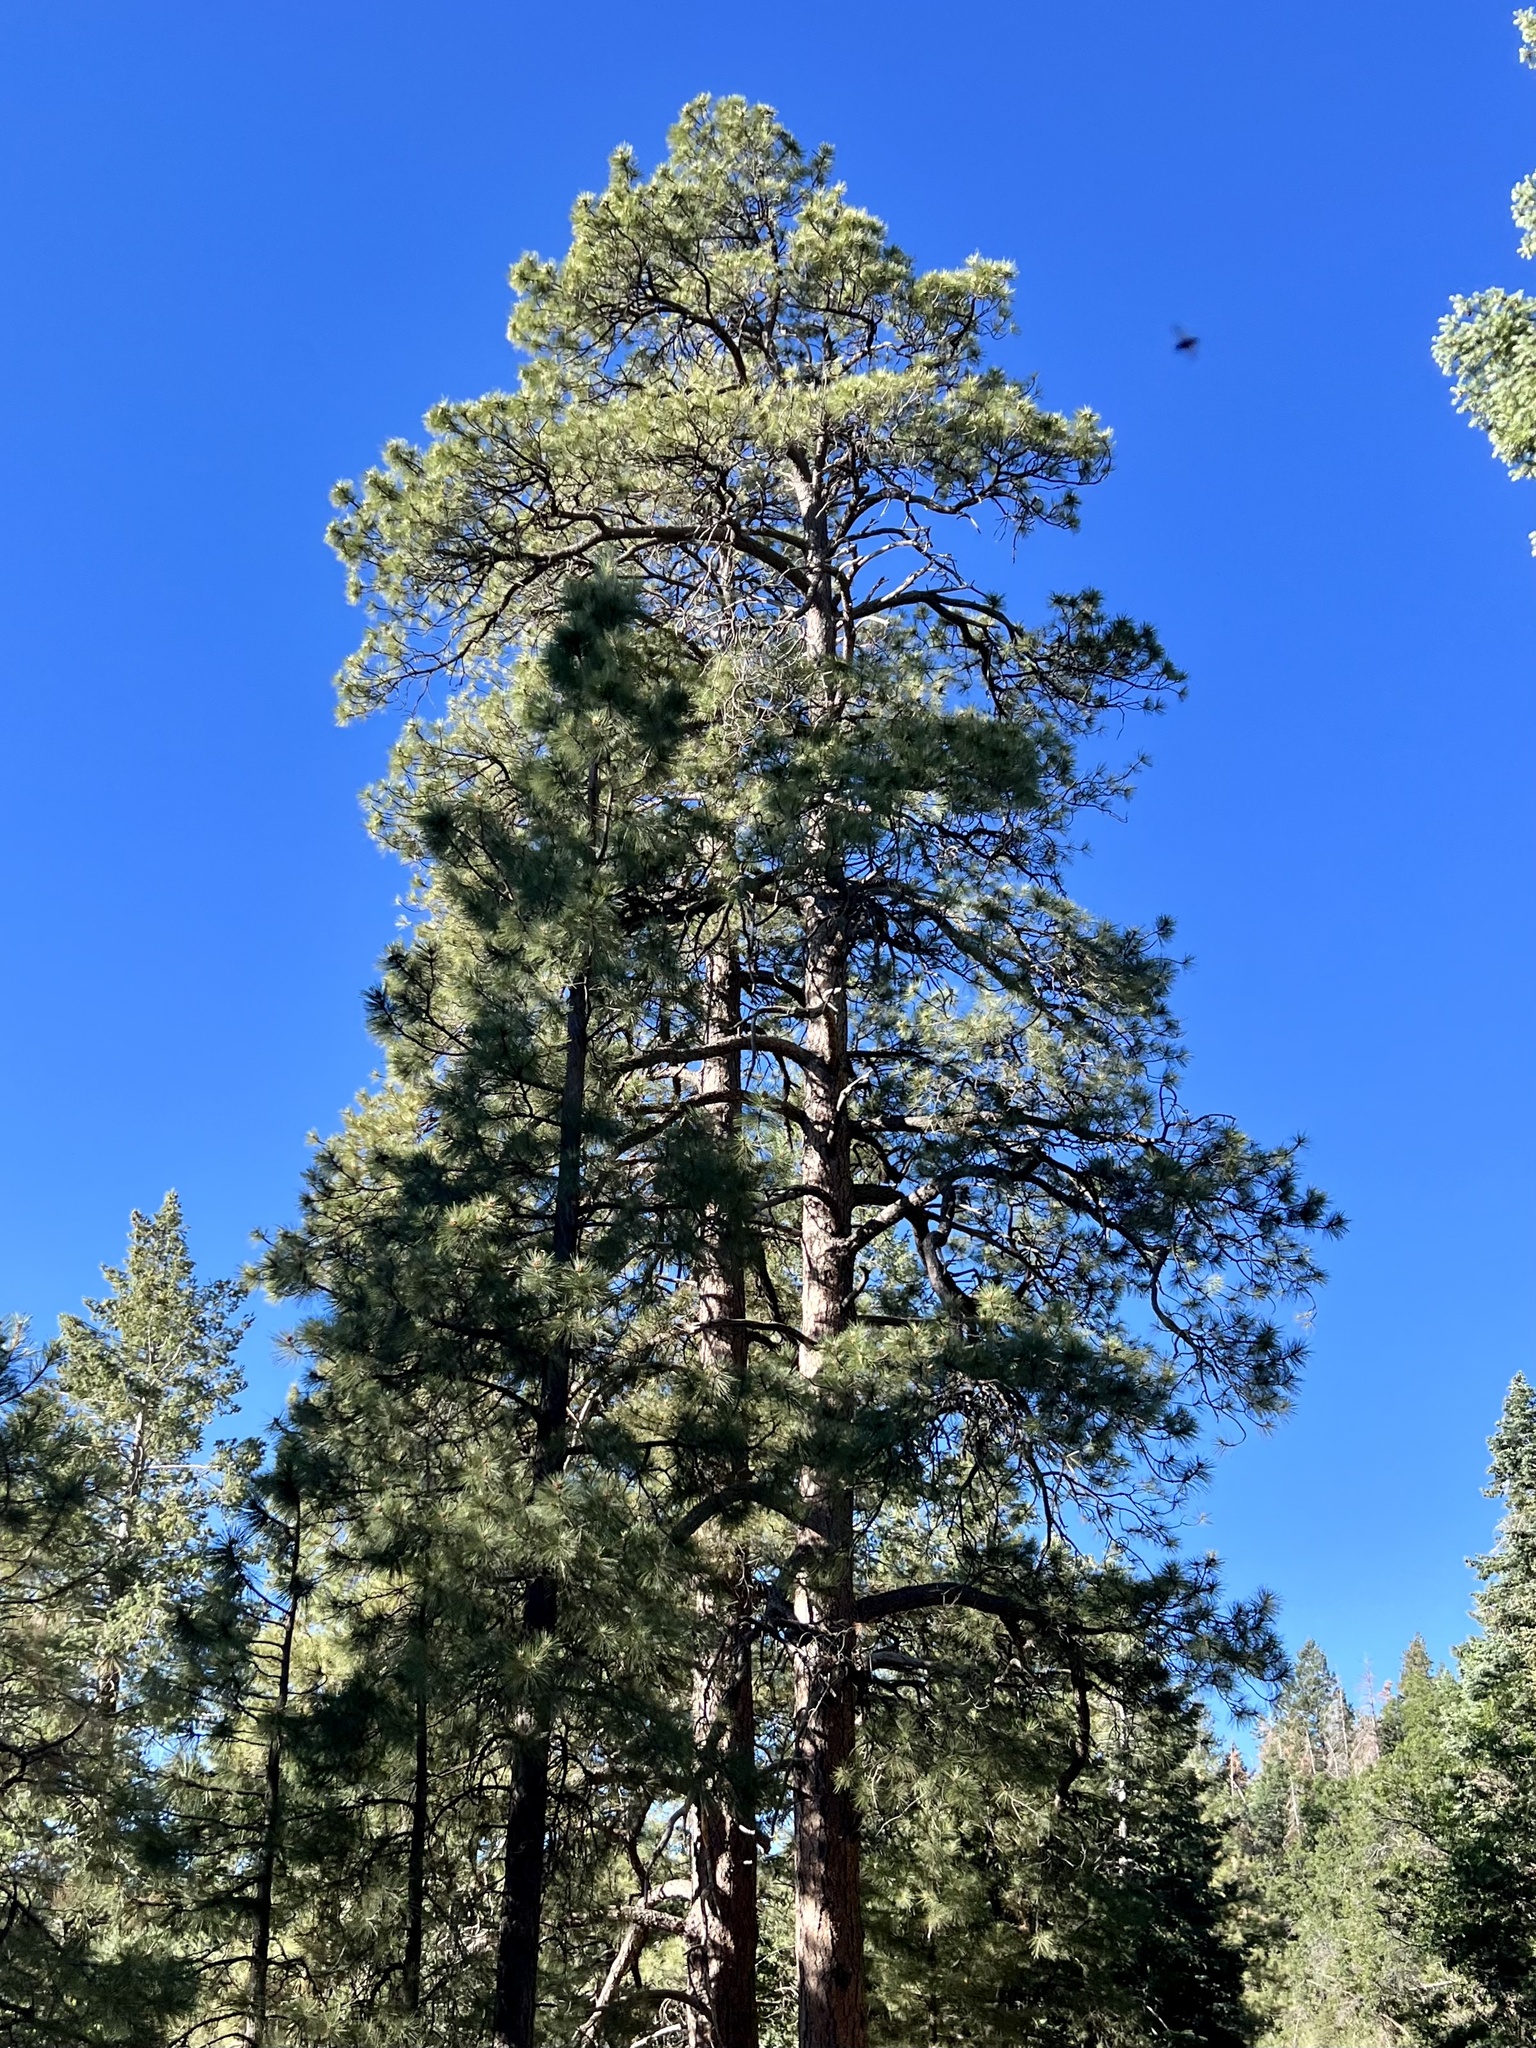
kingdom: Plantae
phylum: Tracheophyta
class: Pinopsida
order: Pinales
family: Pinaceae
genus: Pinus
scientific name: Pinus ponderosa
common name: Western yellow-pine
